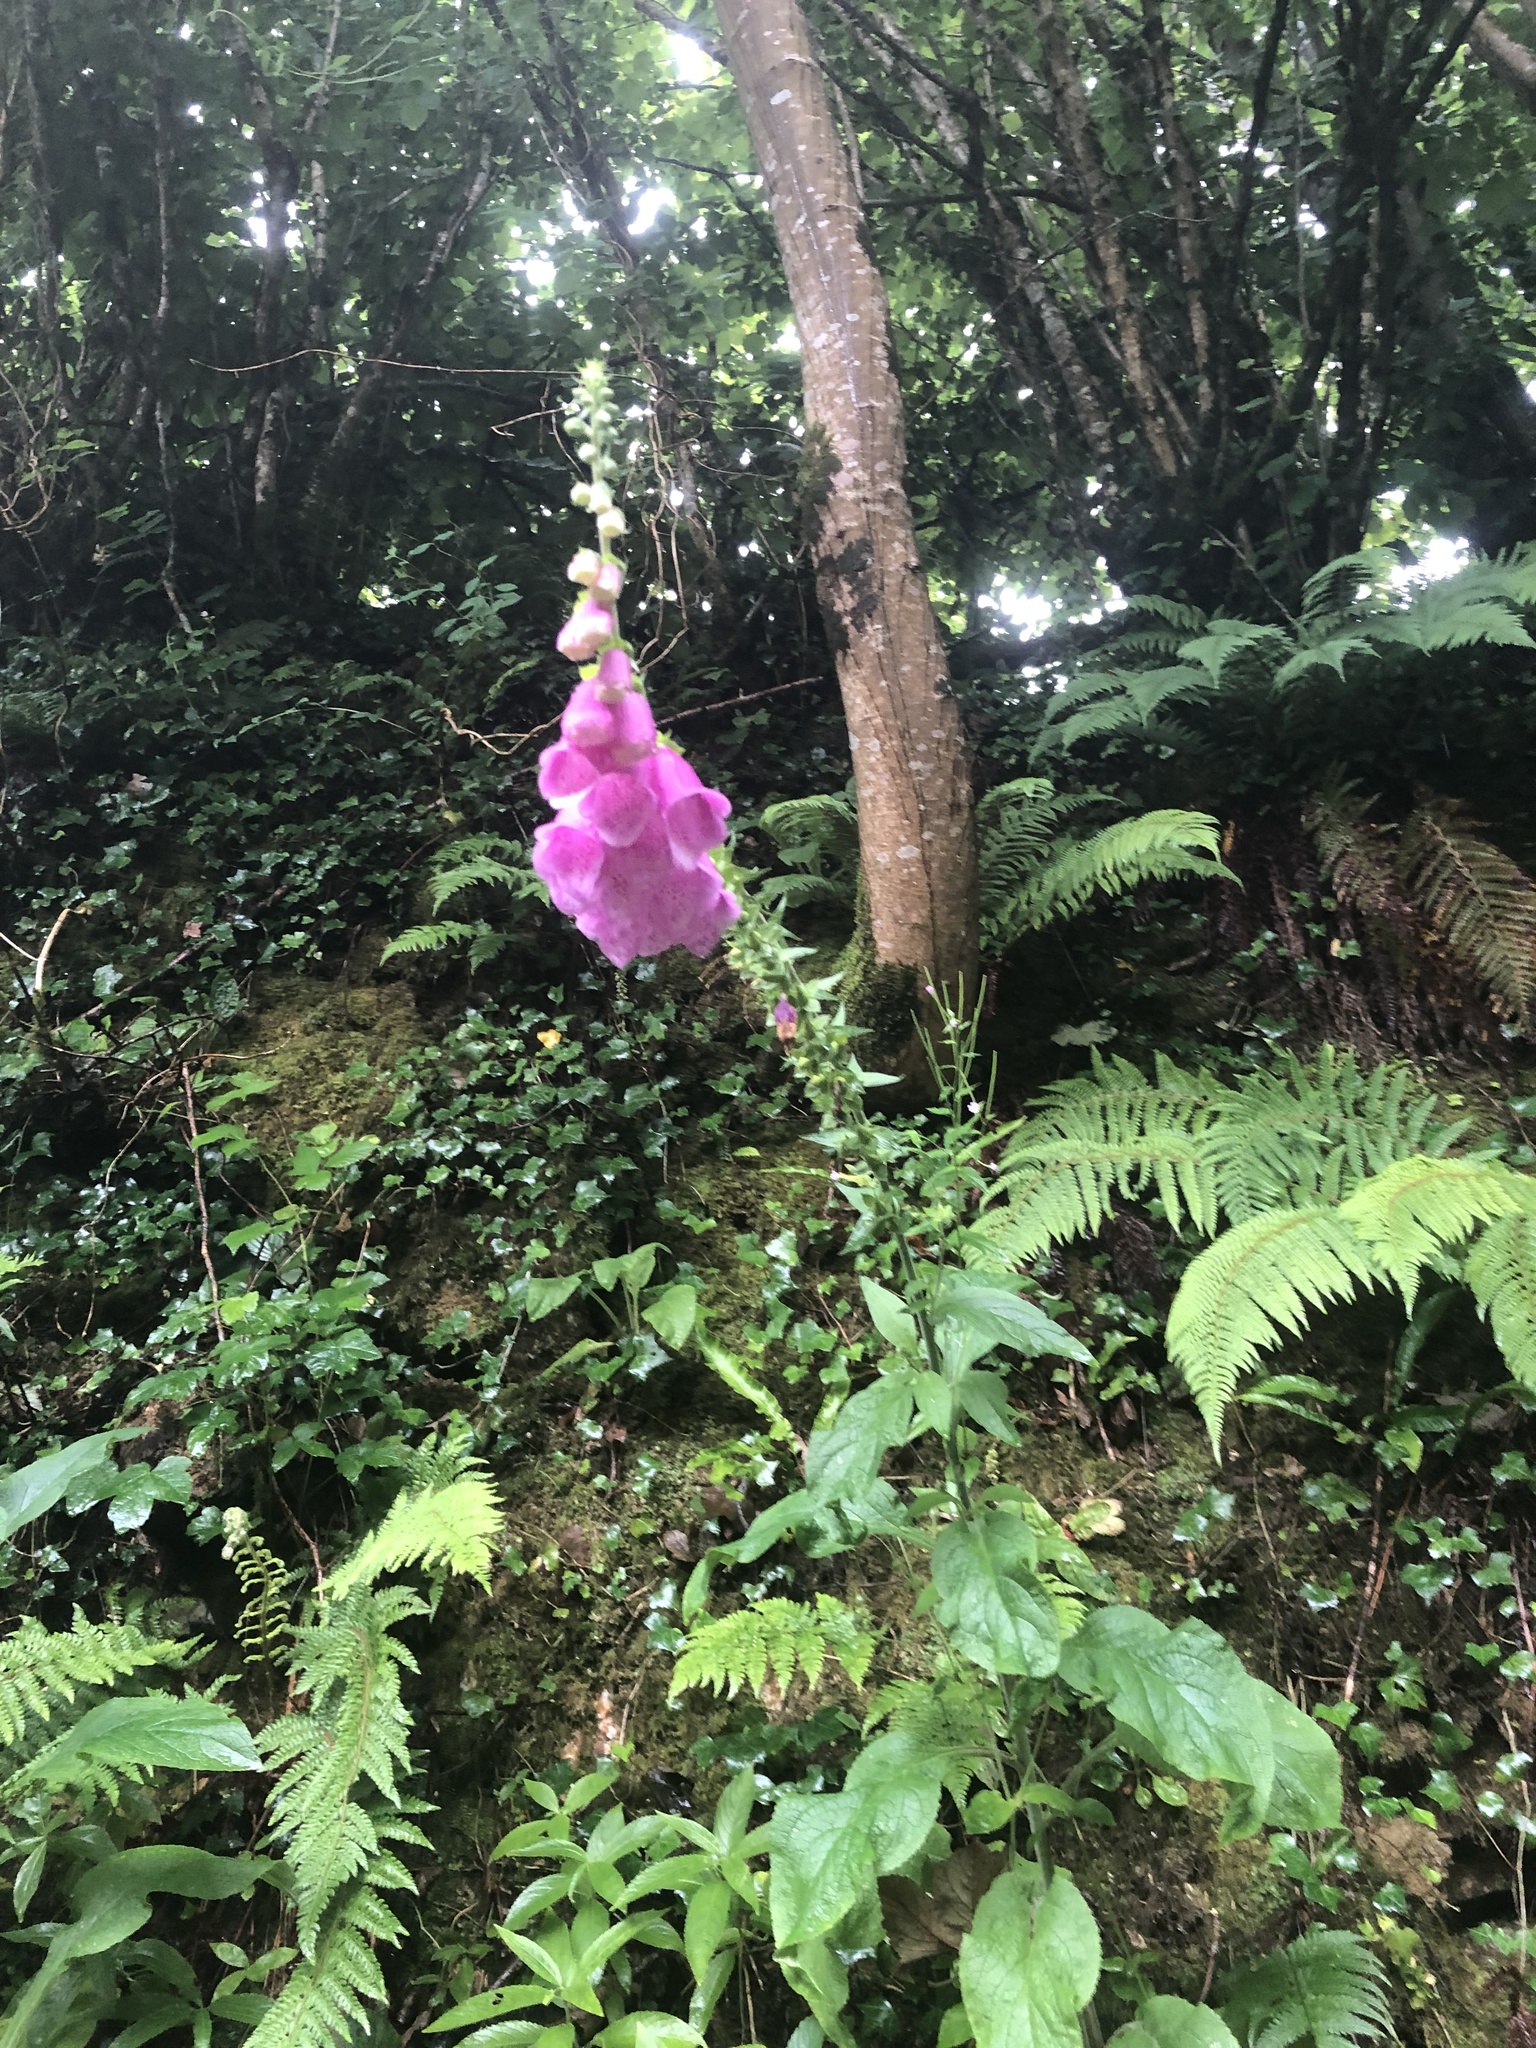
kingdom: Plantae
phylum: Tracheophyta
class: Magnoliopsida
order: Lamiales
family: Plantaginaceae
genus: Digitalis
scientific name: Digitalis purpurea
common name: Foxglove
